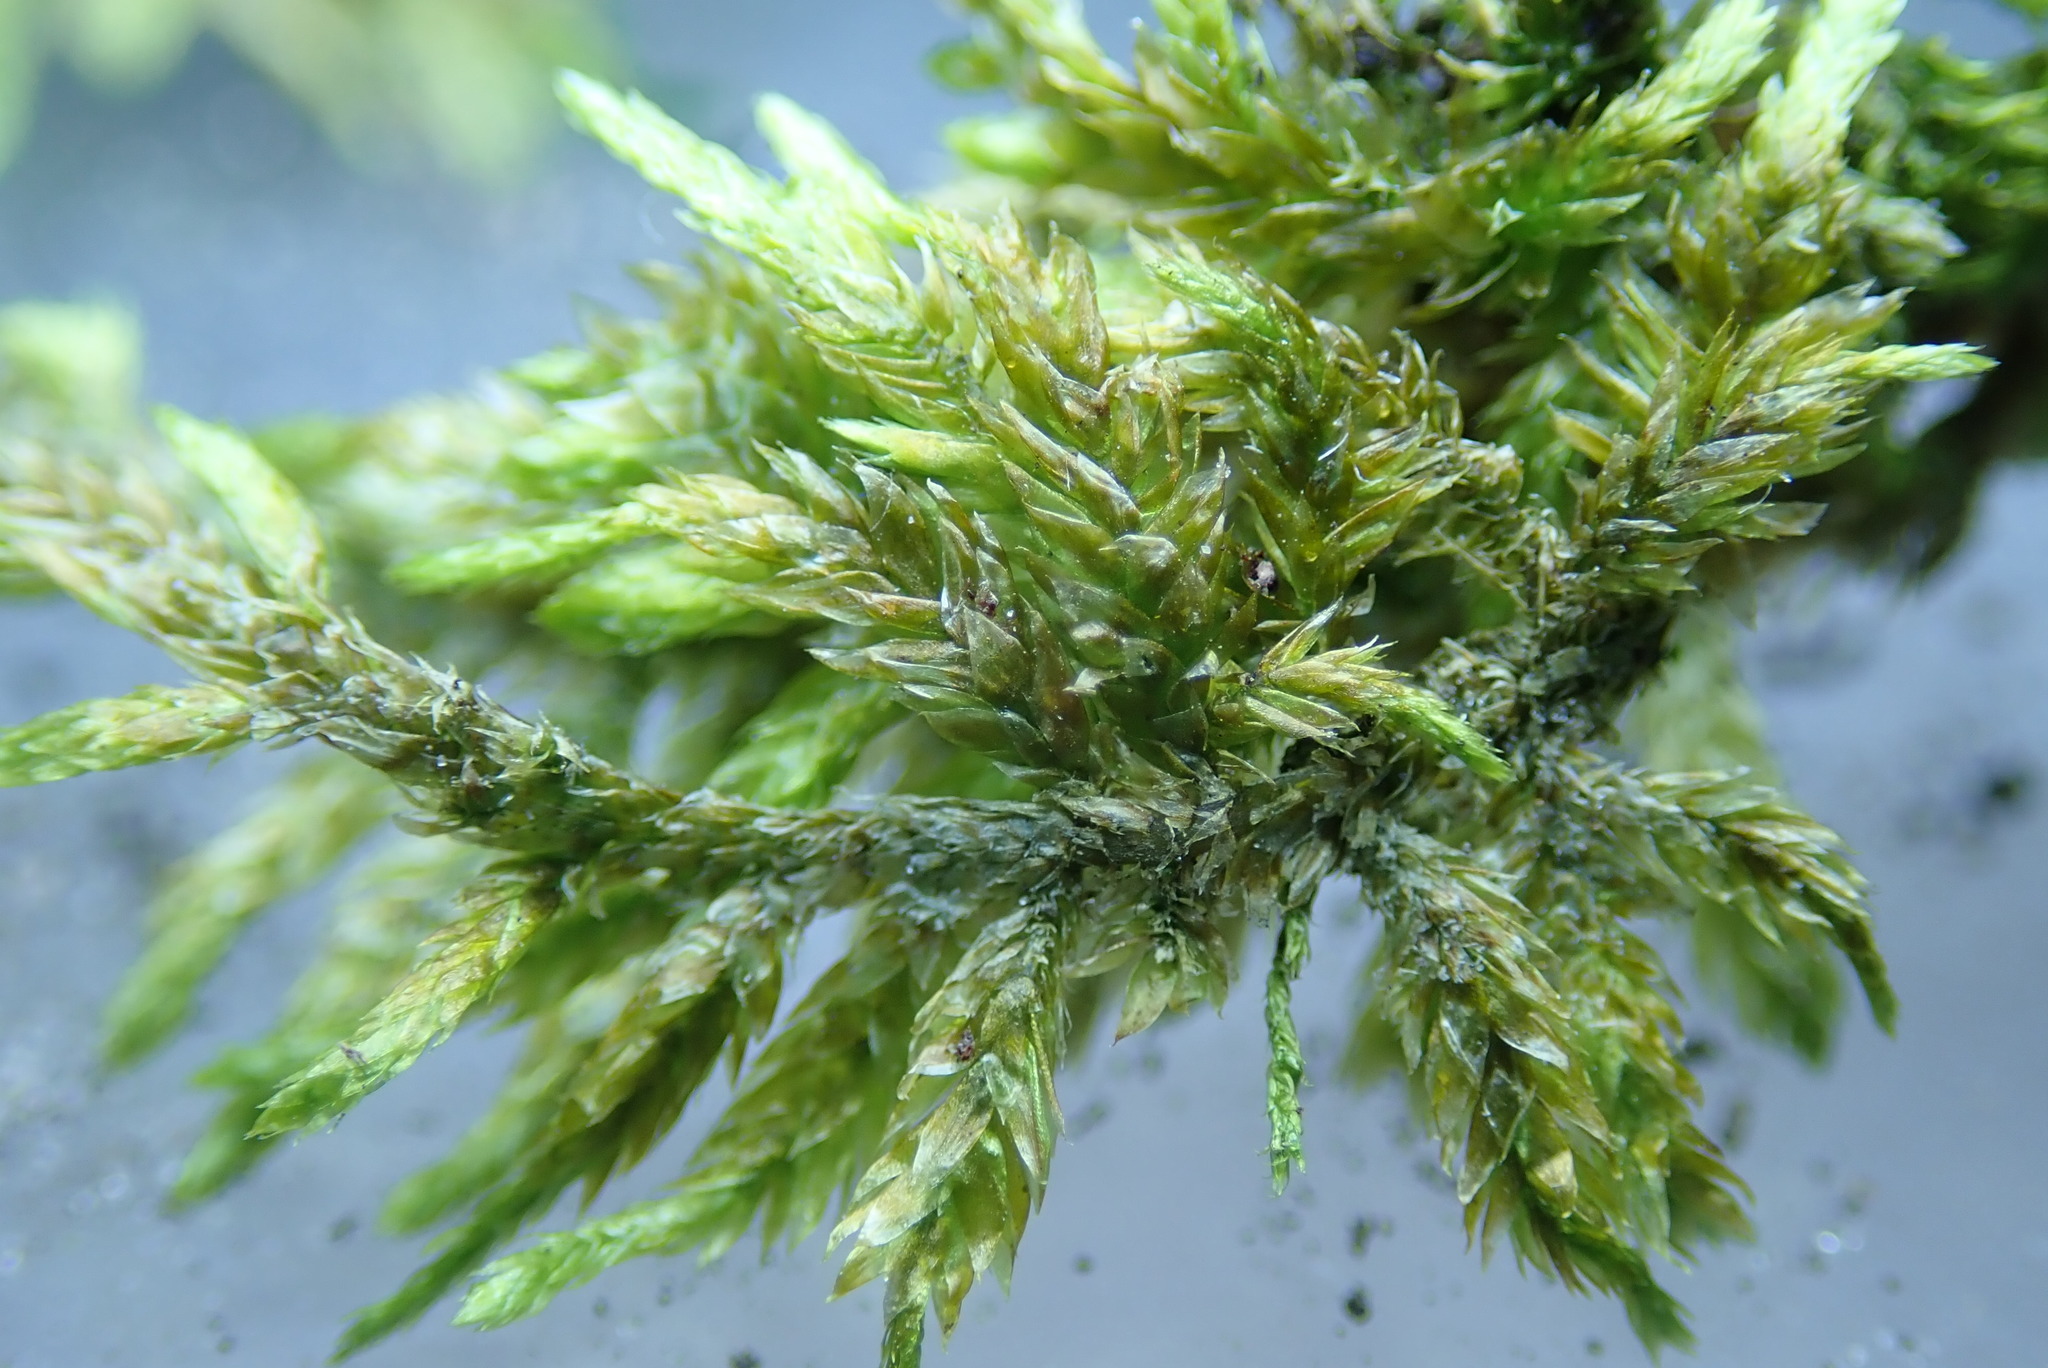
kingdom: Plantae
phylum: Bryophyta
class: Bryopsida
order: Hypnales
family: Entodontaceae
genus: Entodon
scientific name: Entodon cladorrhizans
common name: Flat-stemmed entodon moss
